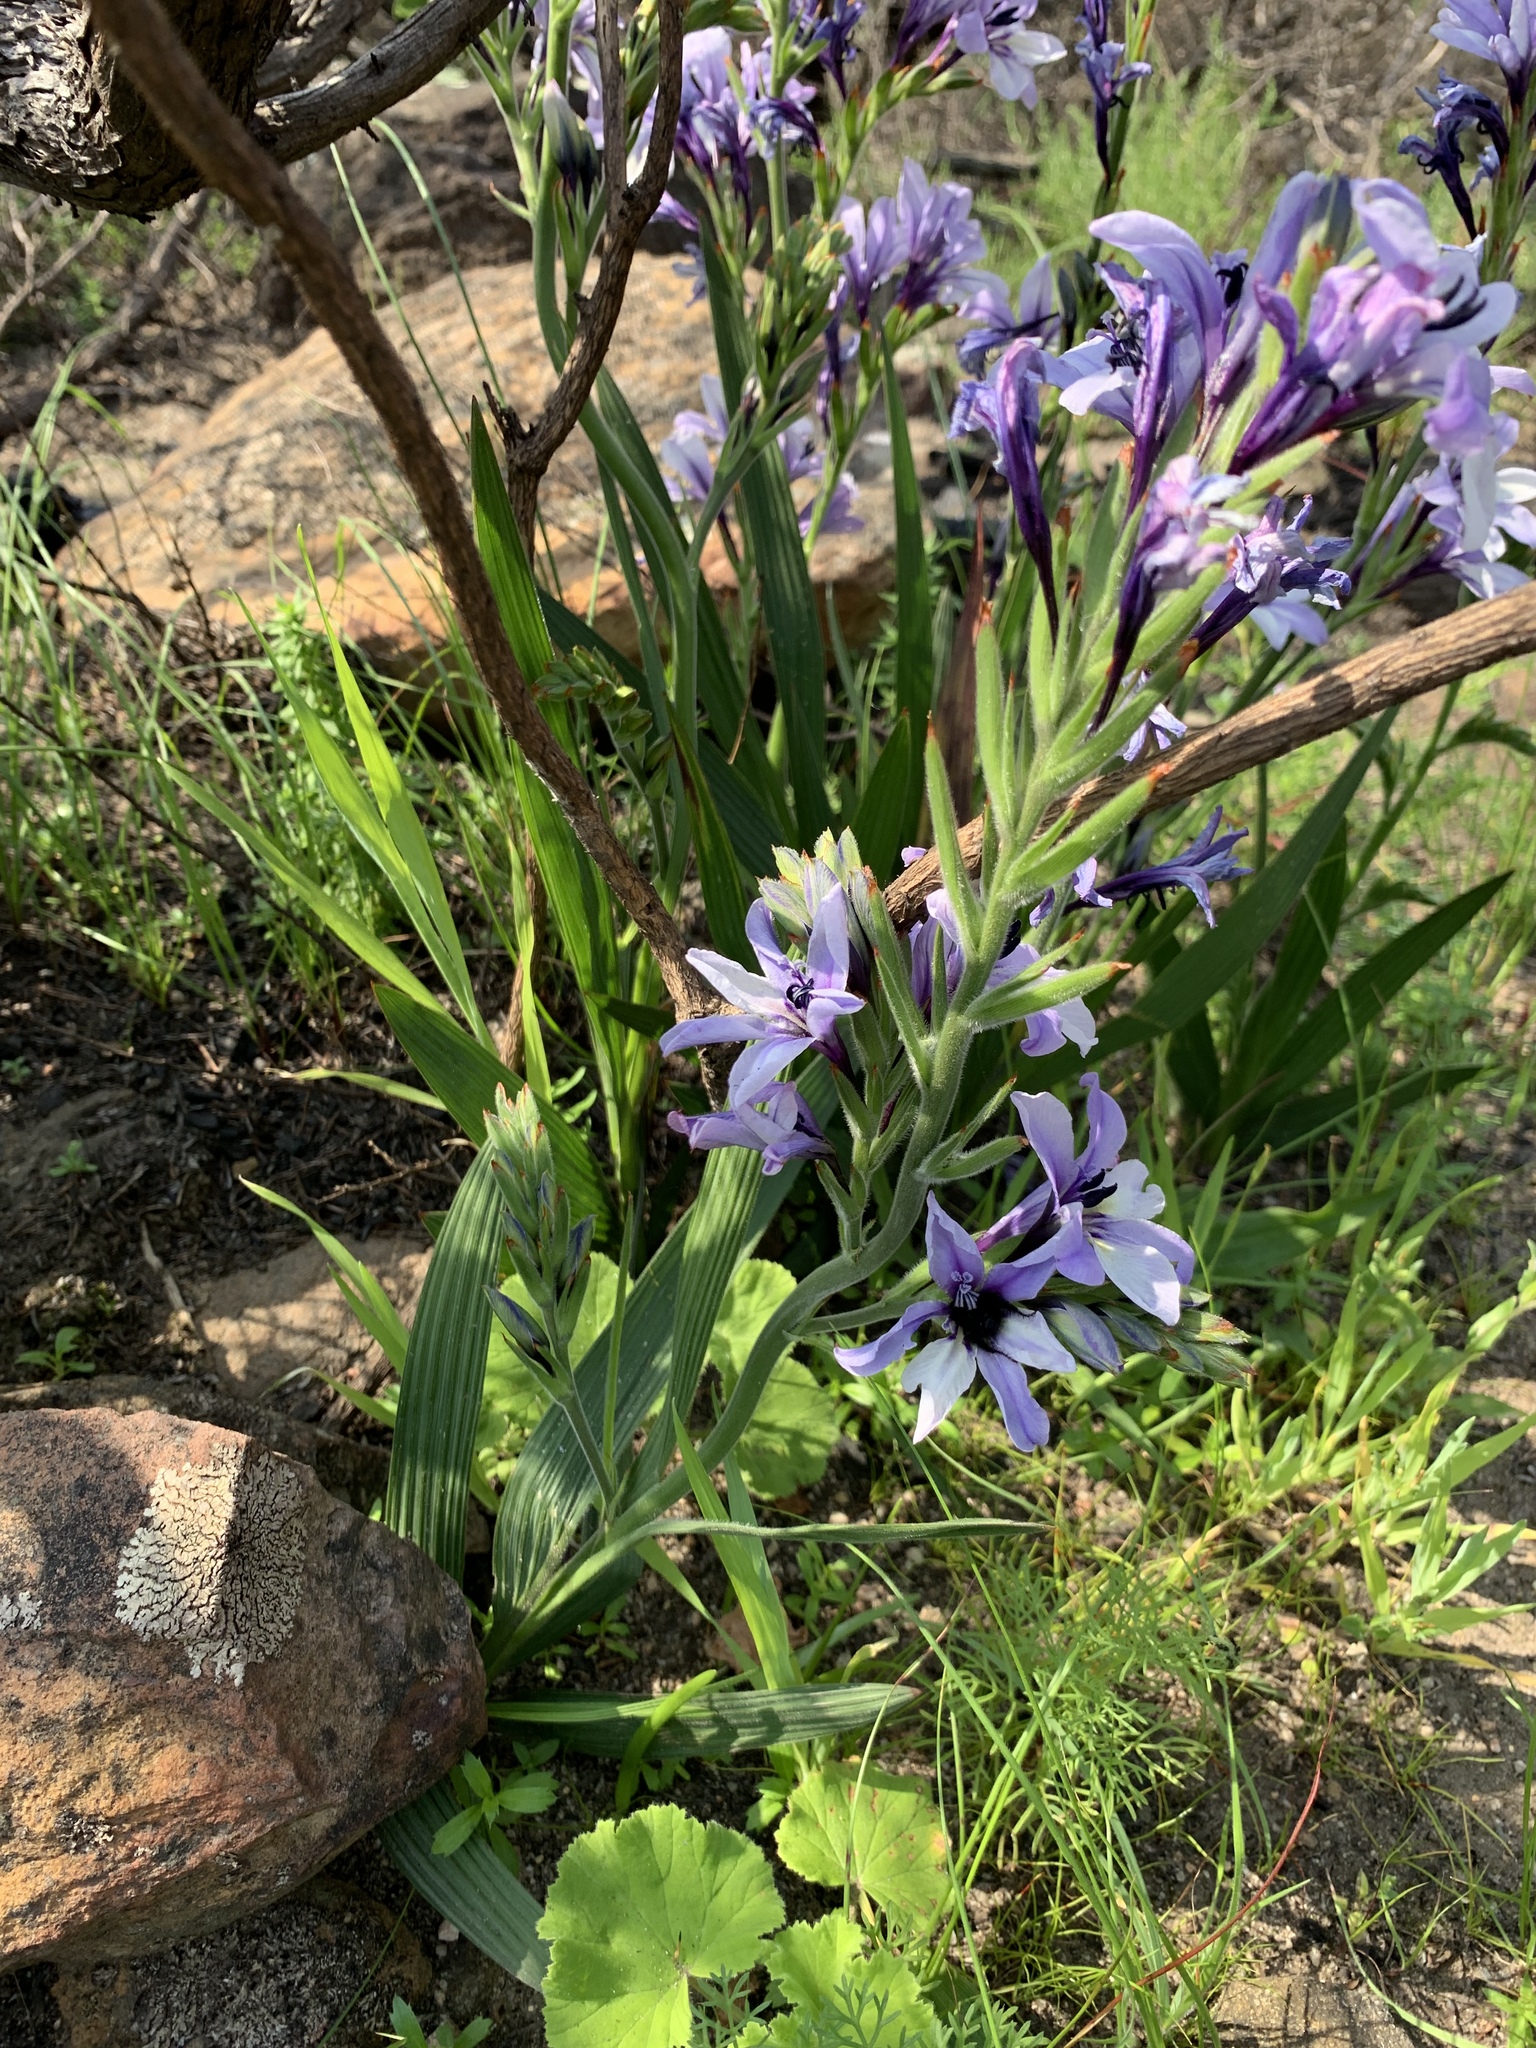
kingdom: Plantae
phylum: Tracheophyta
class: Liliopsida
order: Asparagales
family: Iridaceae
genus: Babiana
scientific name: Babiana fragrans
